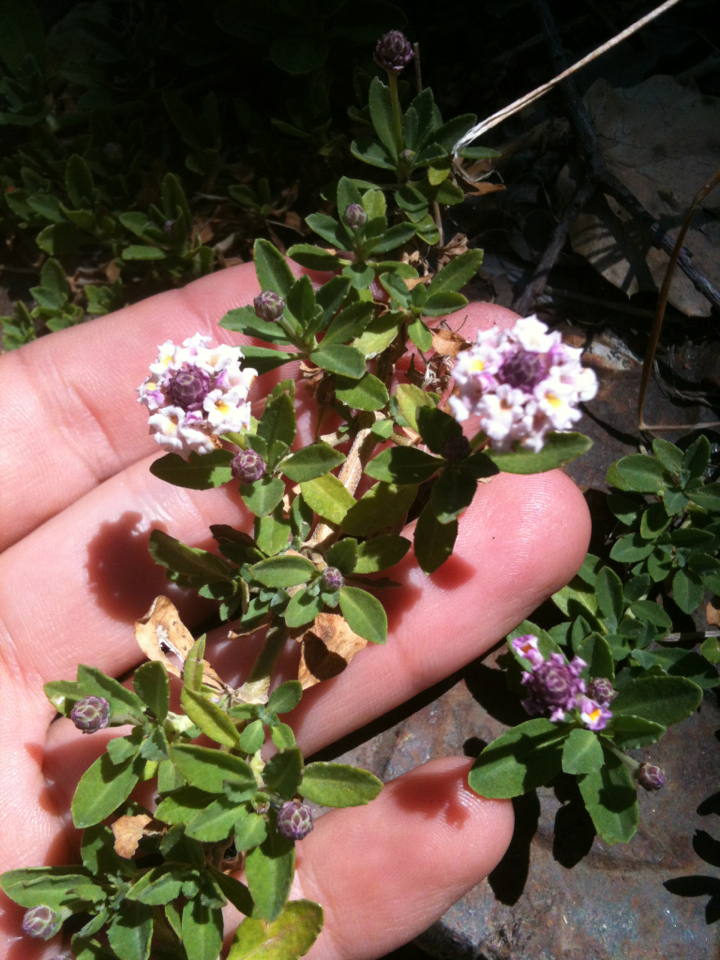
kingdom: Plantae
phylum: Tracheophyta
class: Magnoliopsida
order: Lamiales
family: Verbenaceae
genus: Phyla
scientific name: Phyla nodiflora
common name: Frogfruit
